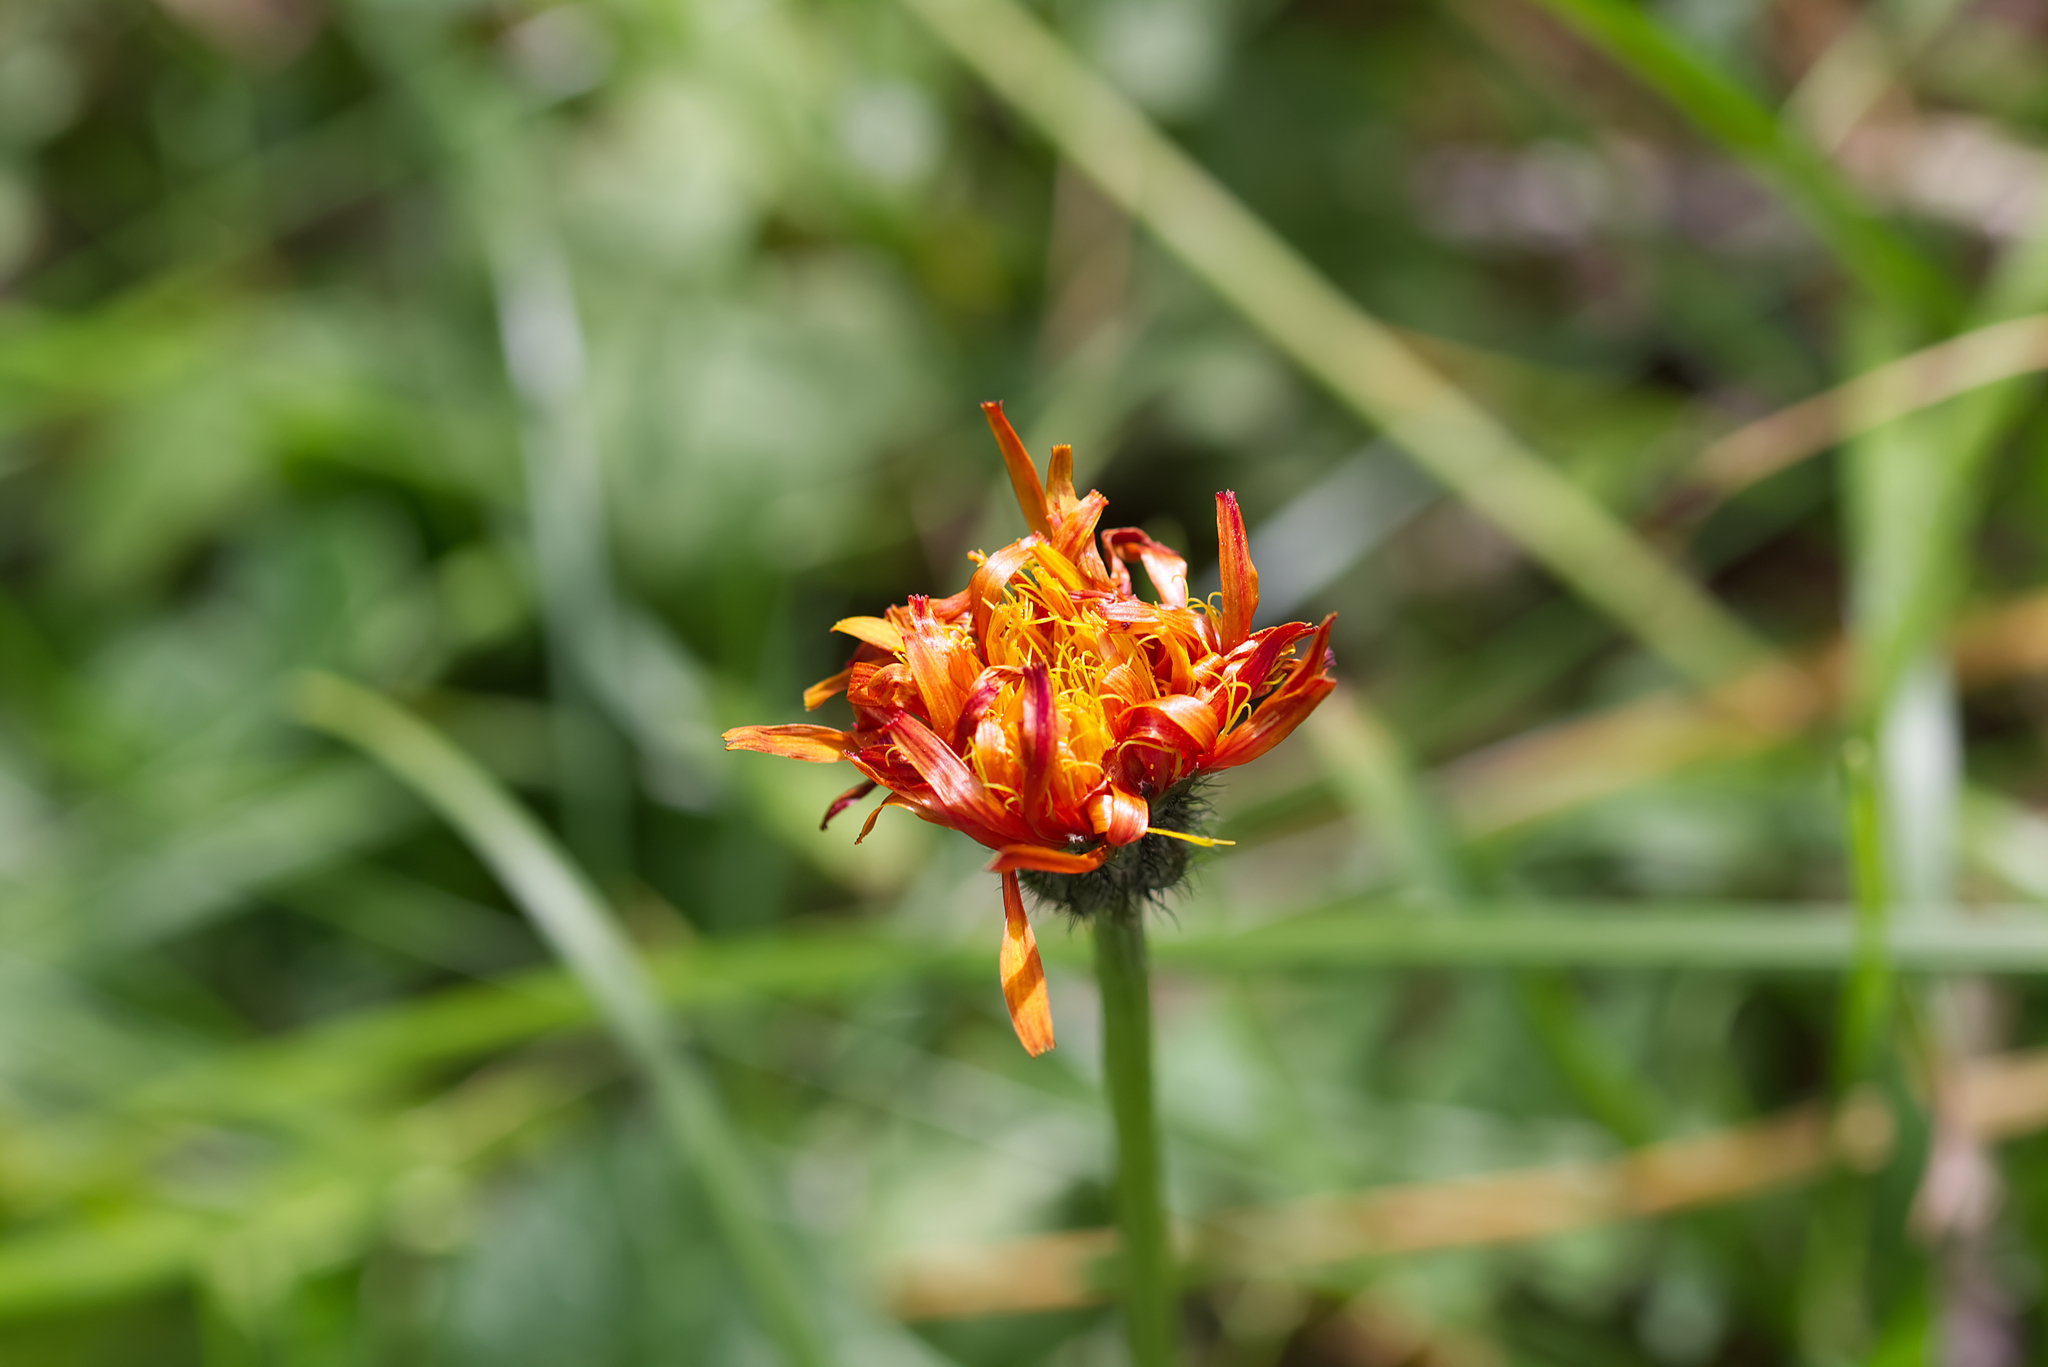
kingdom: Plantae
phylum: Tracheophyta
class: Magnoliopsida
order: Asterales
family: Asteraceae
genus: Crepis
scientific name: Crepis aurea
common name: Golden hawk's-beard
